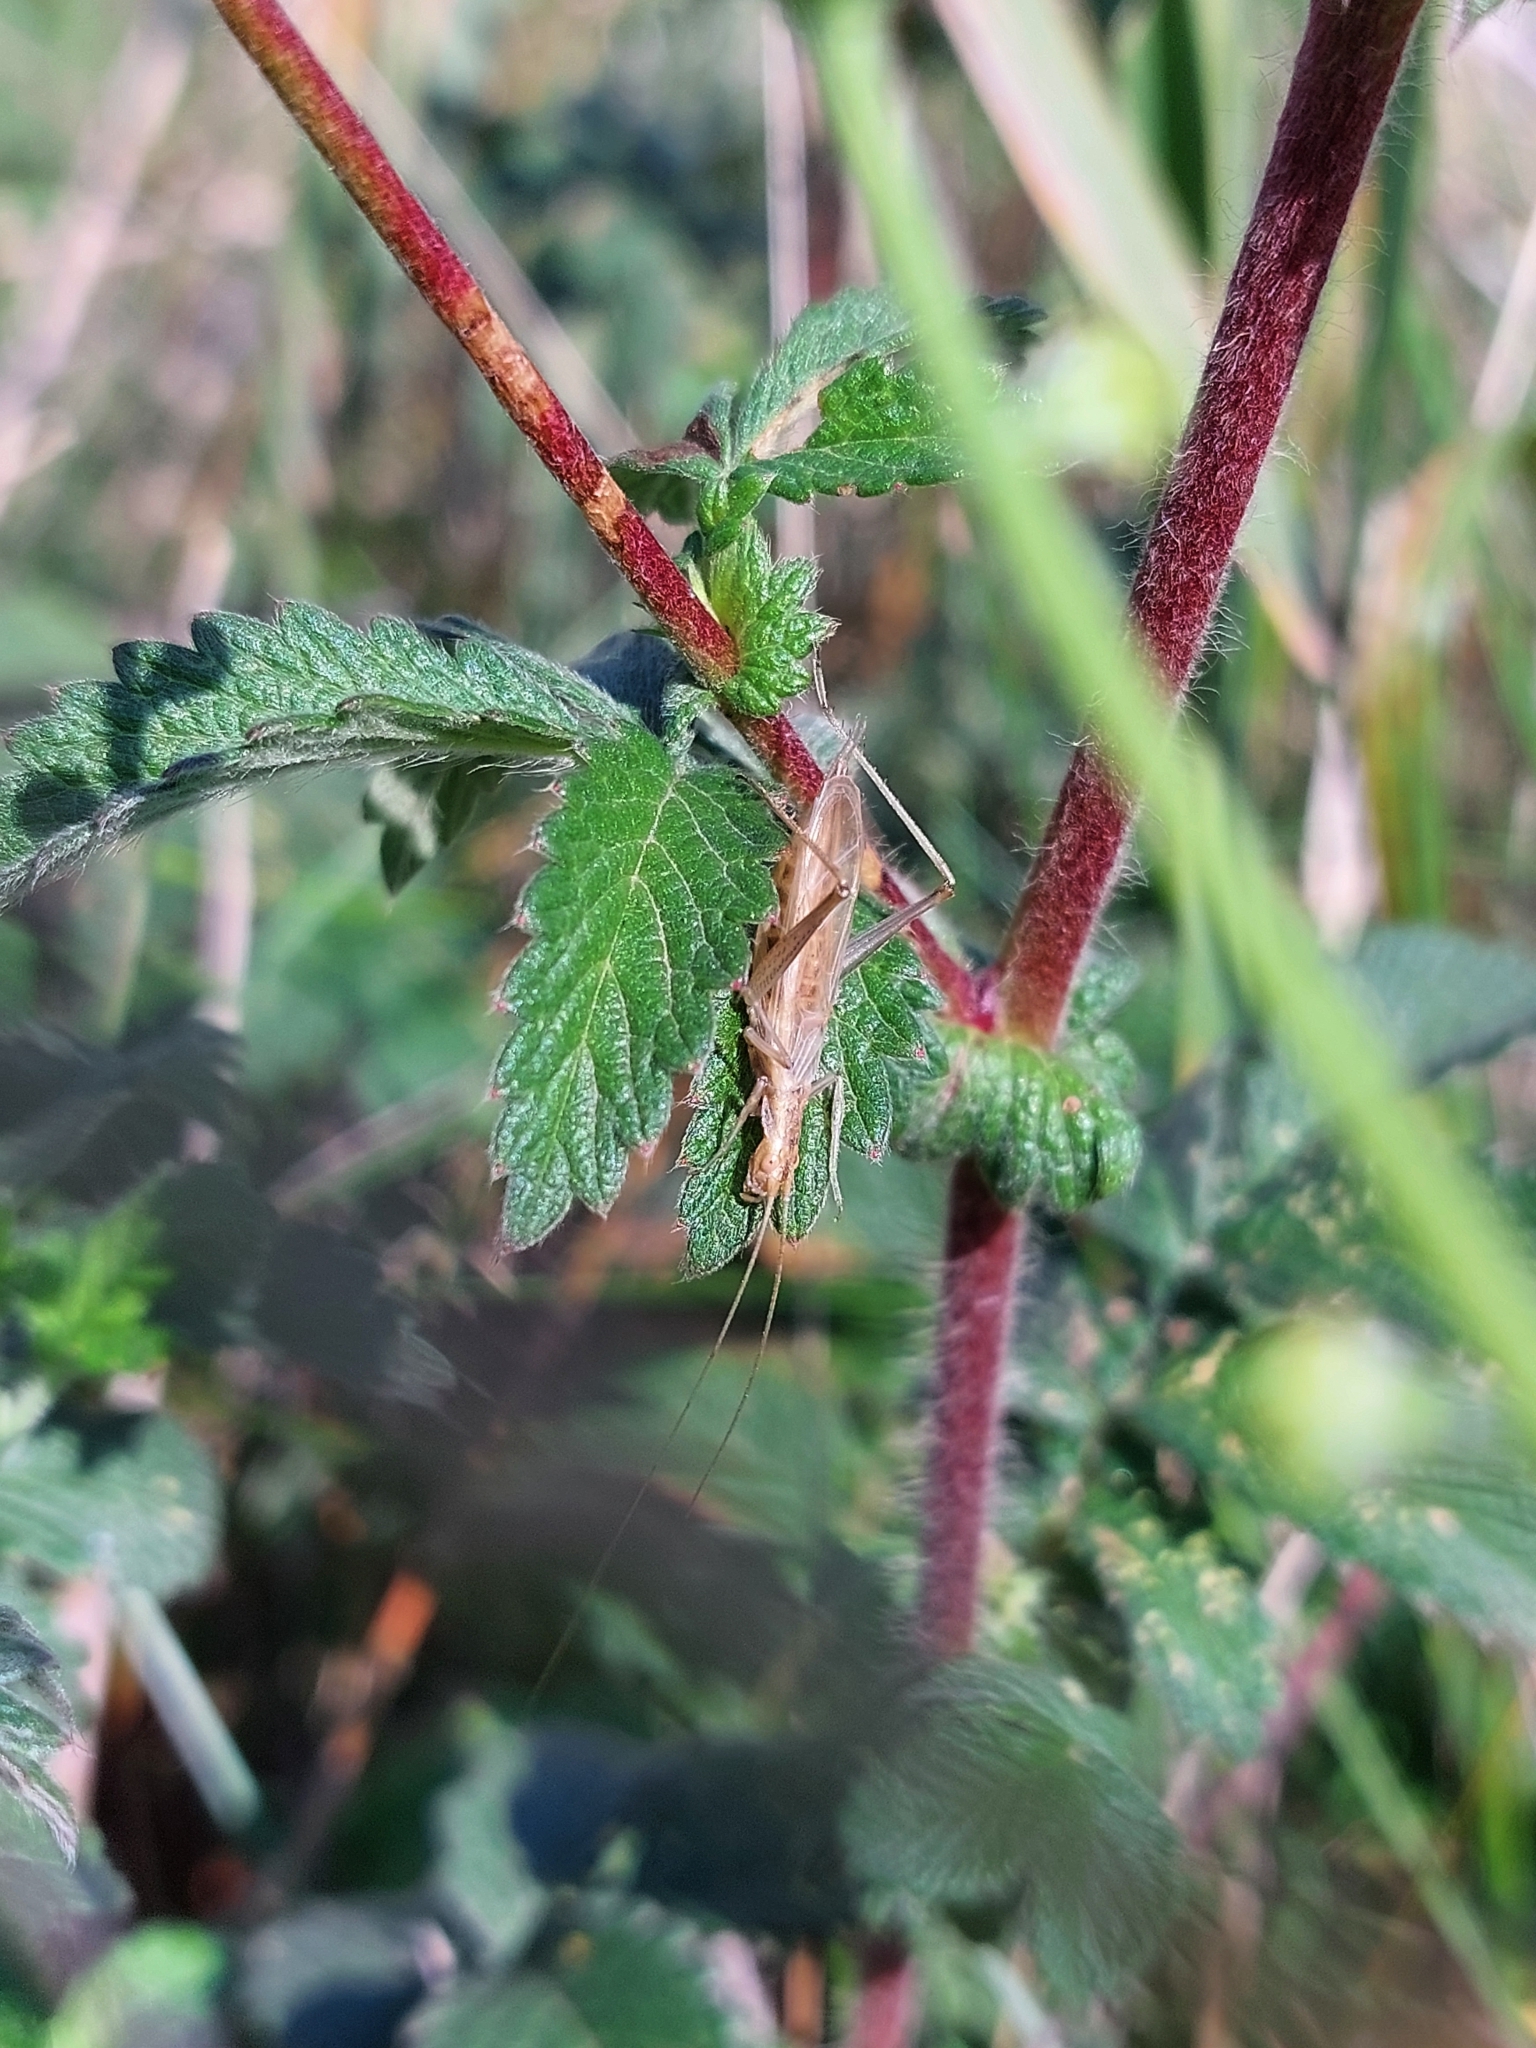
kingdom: Animalia
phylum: Arthropoda
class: Insecta
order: Orthoptera
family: Gryllidae
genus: Oecanthus
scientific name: Oecanthus pellucens
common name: Tree-cricket
